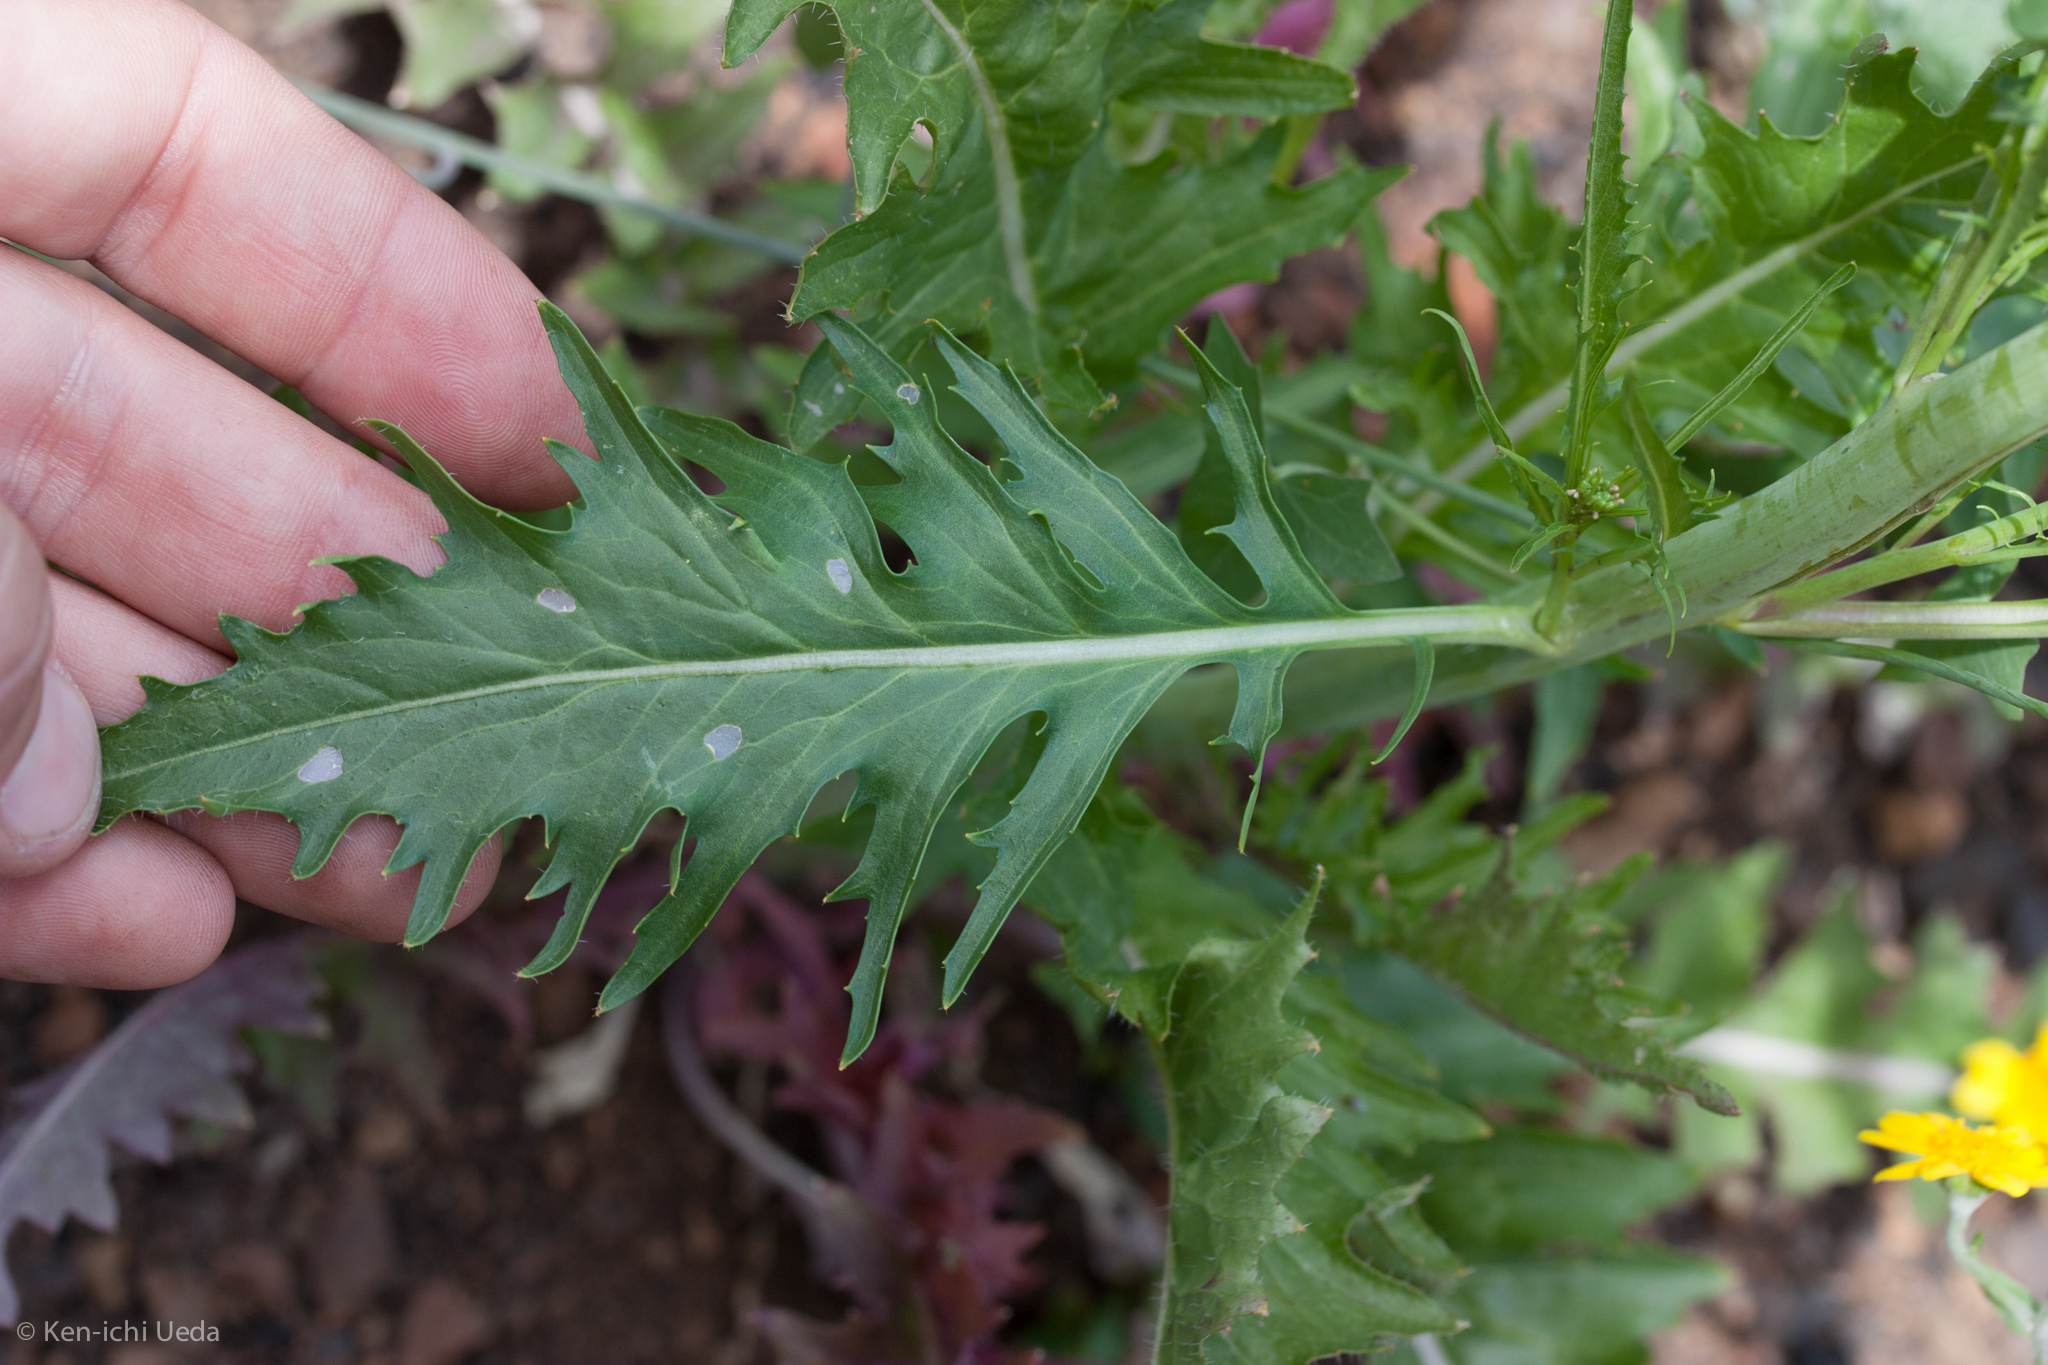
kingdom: Plantae
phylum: Tracheophyta
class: Magnoliopsida
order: Brassicales
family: Brassicaceae
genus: Streptanthus
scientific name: Streptanthus lasiophyllus
